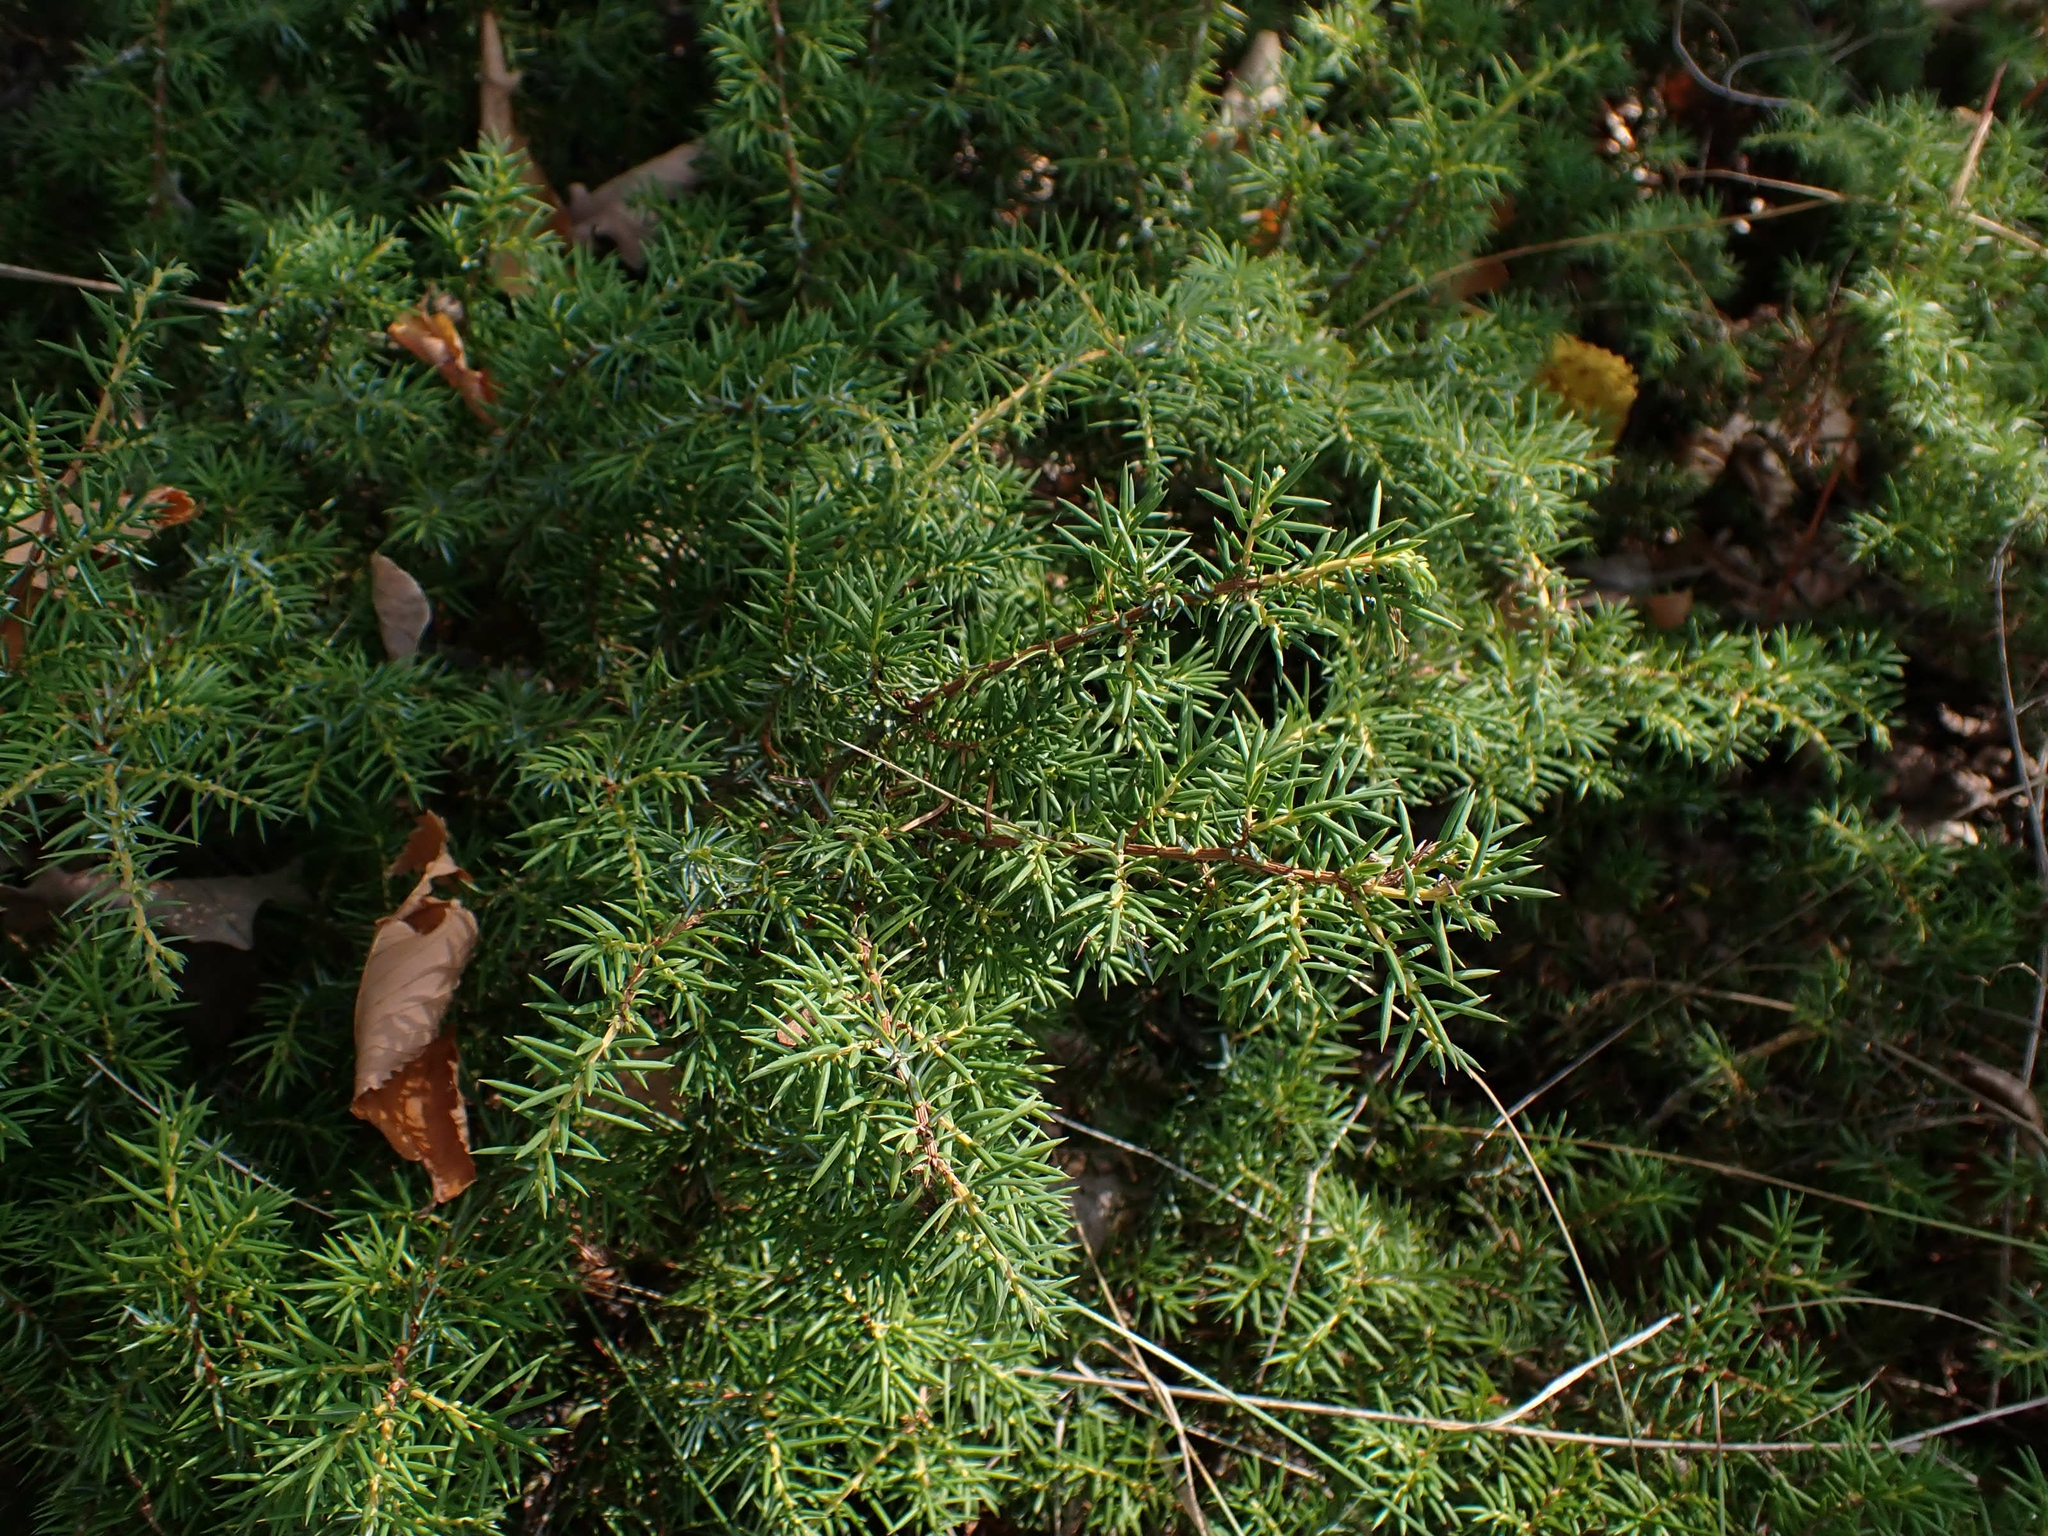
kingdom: Plantae
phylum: Tracheophyta
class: Pinopsida
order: Pinales
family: Cupressaceae
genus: Juniperus
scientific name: Juniperus communis
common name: Common juniper
